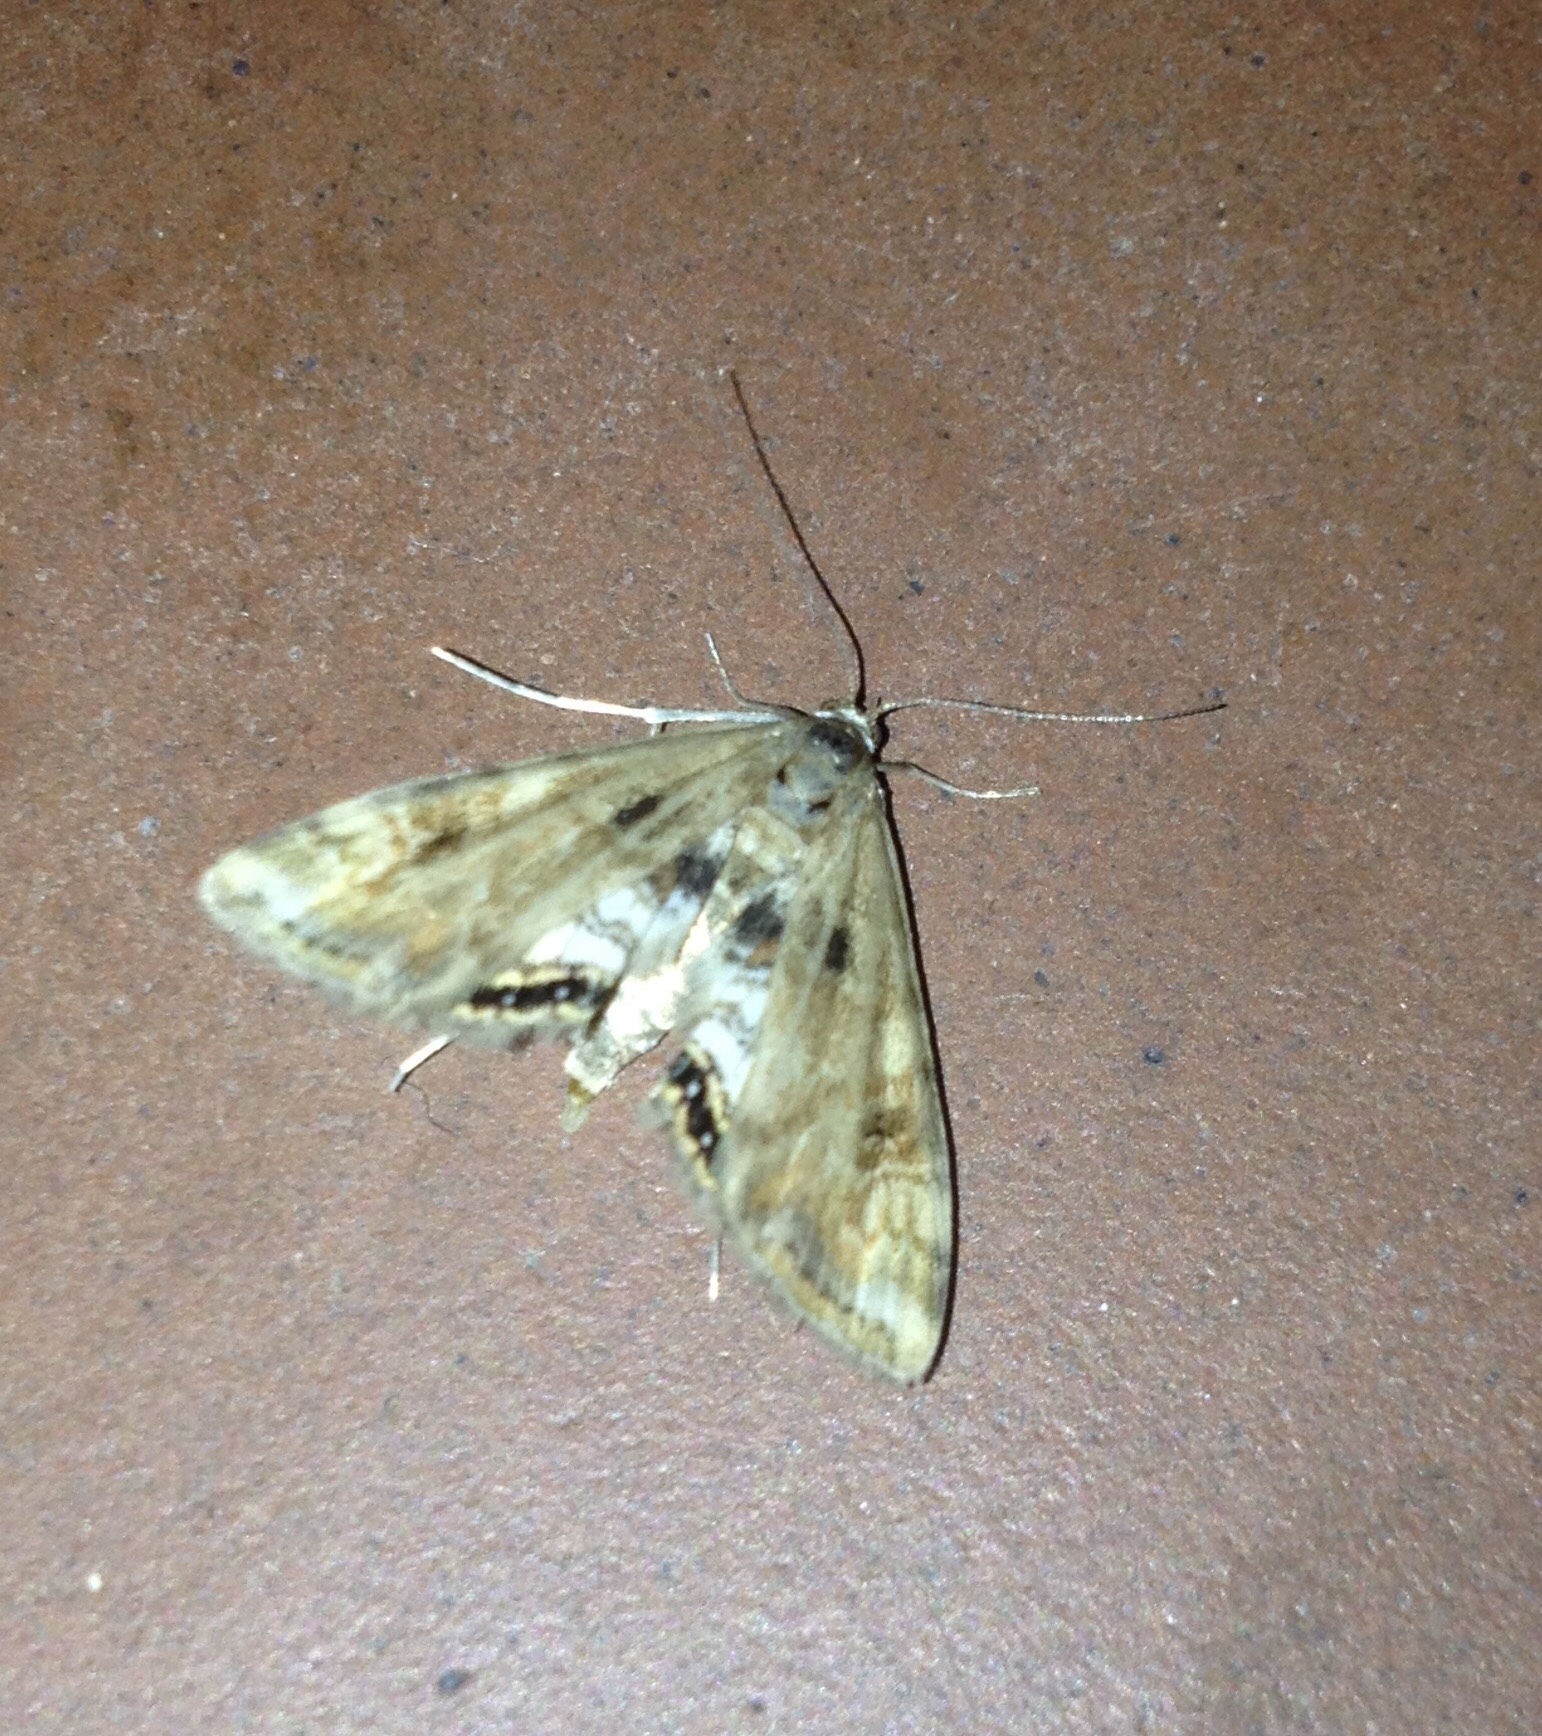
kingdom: Animalia
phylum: Arthropoda
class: Insecta
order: Lepidoptera
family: Crambidae
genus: Cataclysta
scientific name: Cataclysta lemnata
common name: Small china-mark
